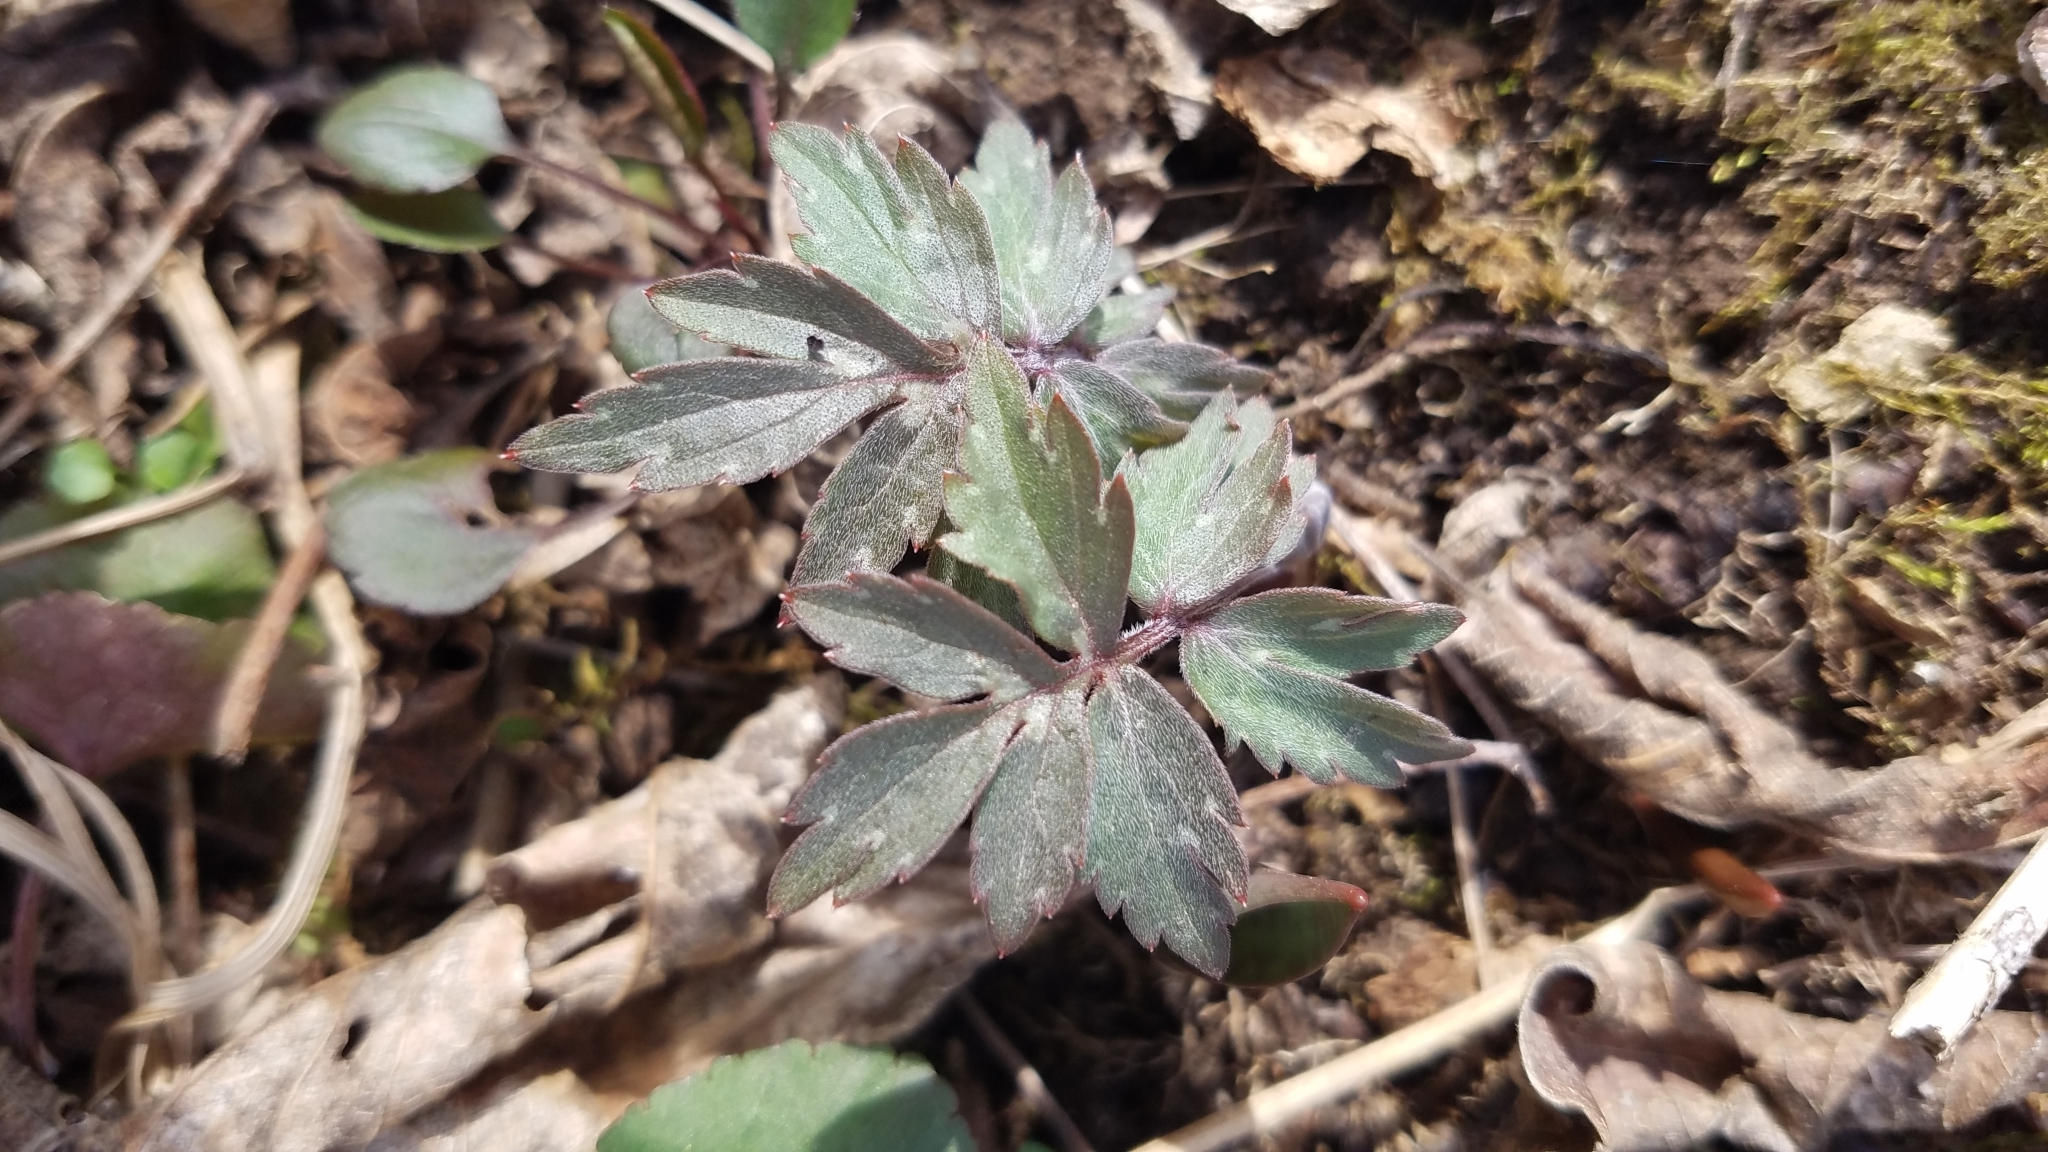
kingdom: Plantae
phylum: Tracheophyta
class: Magnoliopsida
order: Boraginales
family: Hydrophyllaceae
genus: Hydrophyllum
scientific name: Hydrophyllum virginianum
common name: Virginia waterleaf
